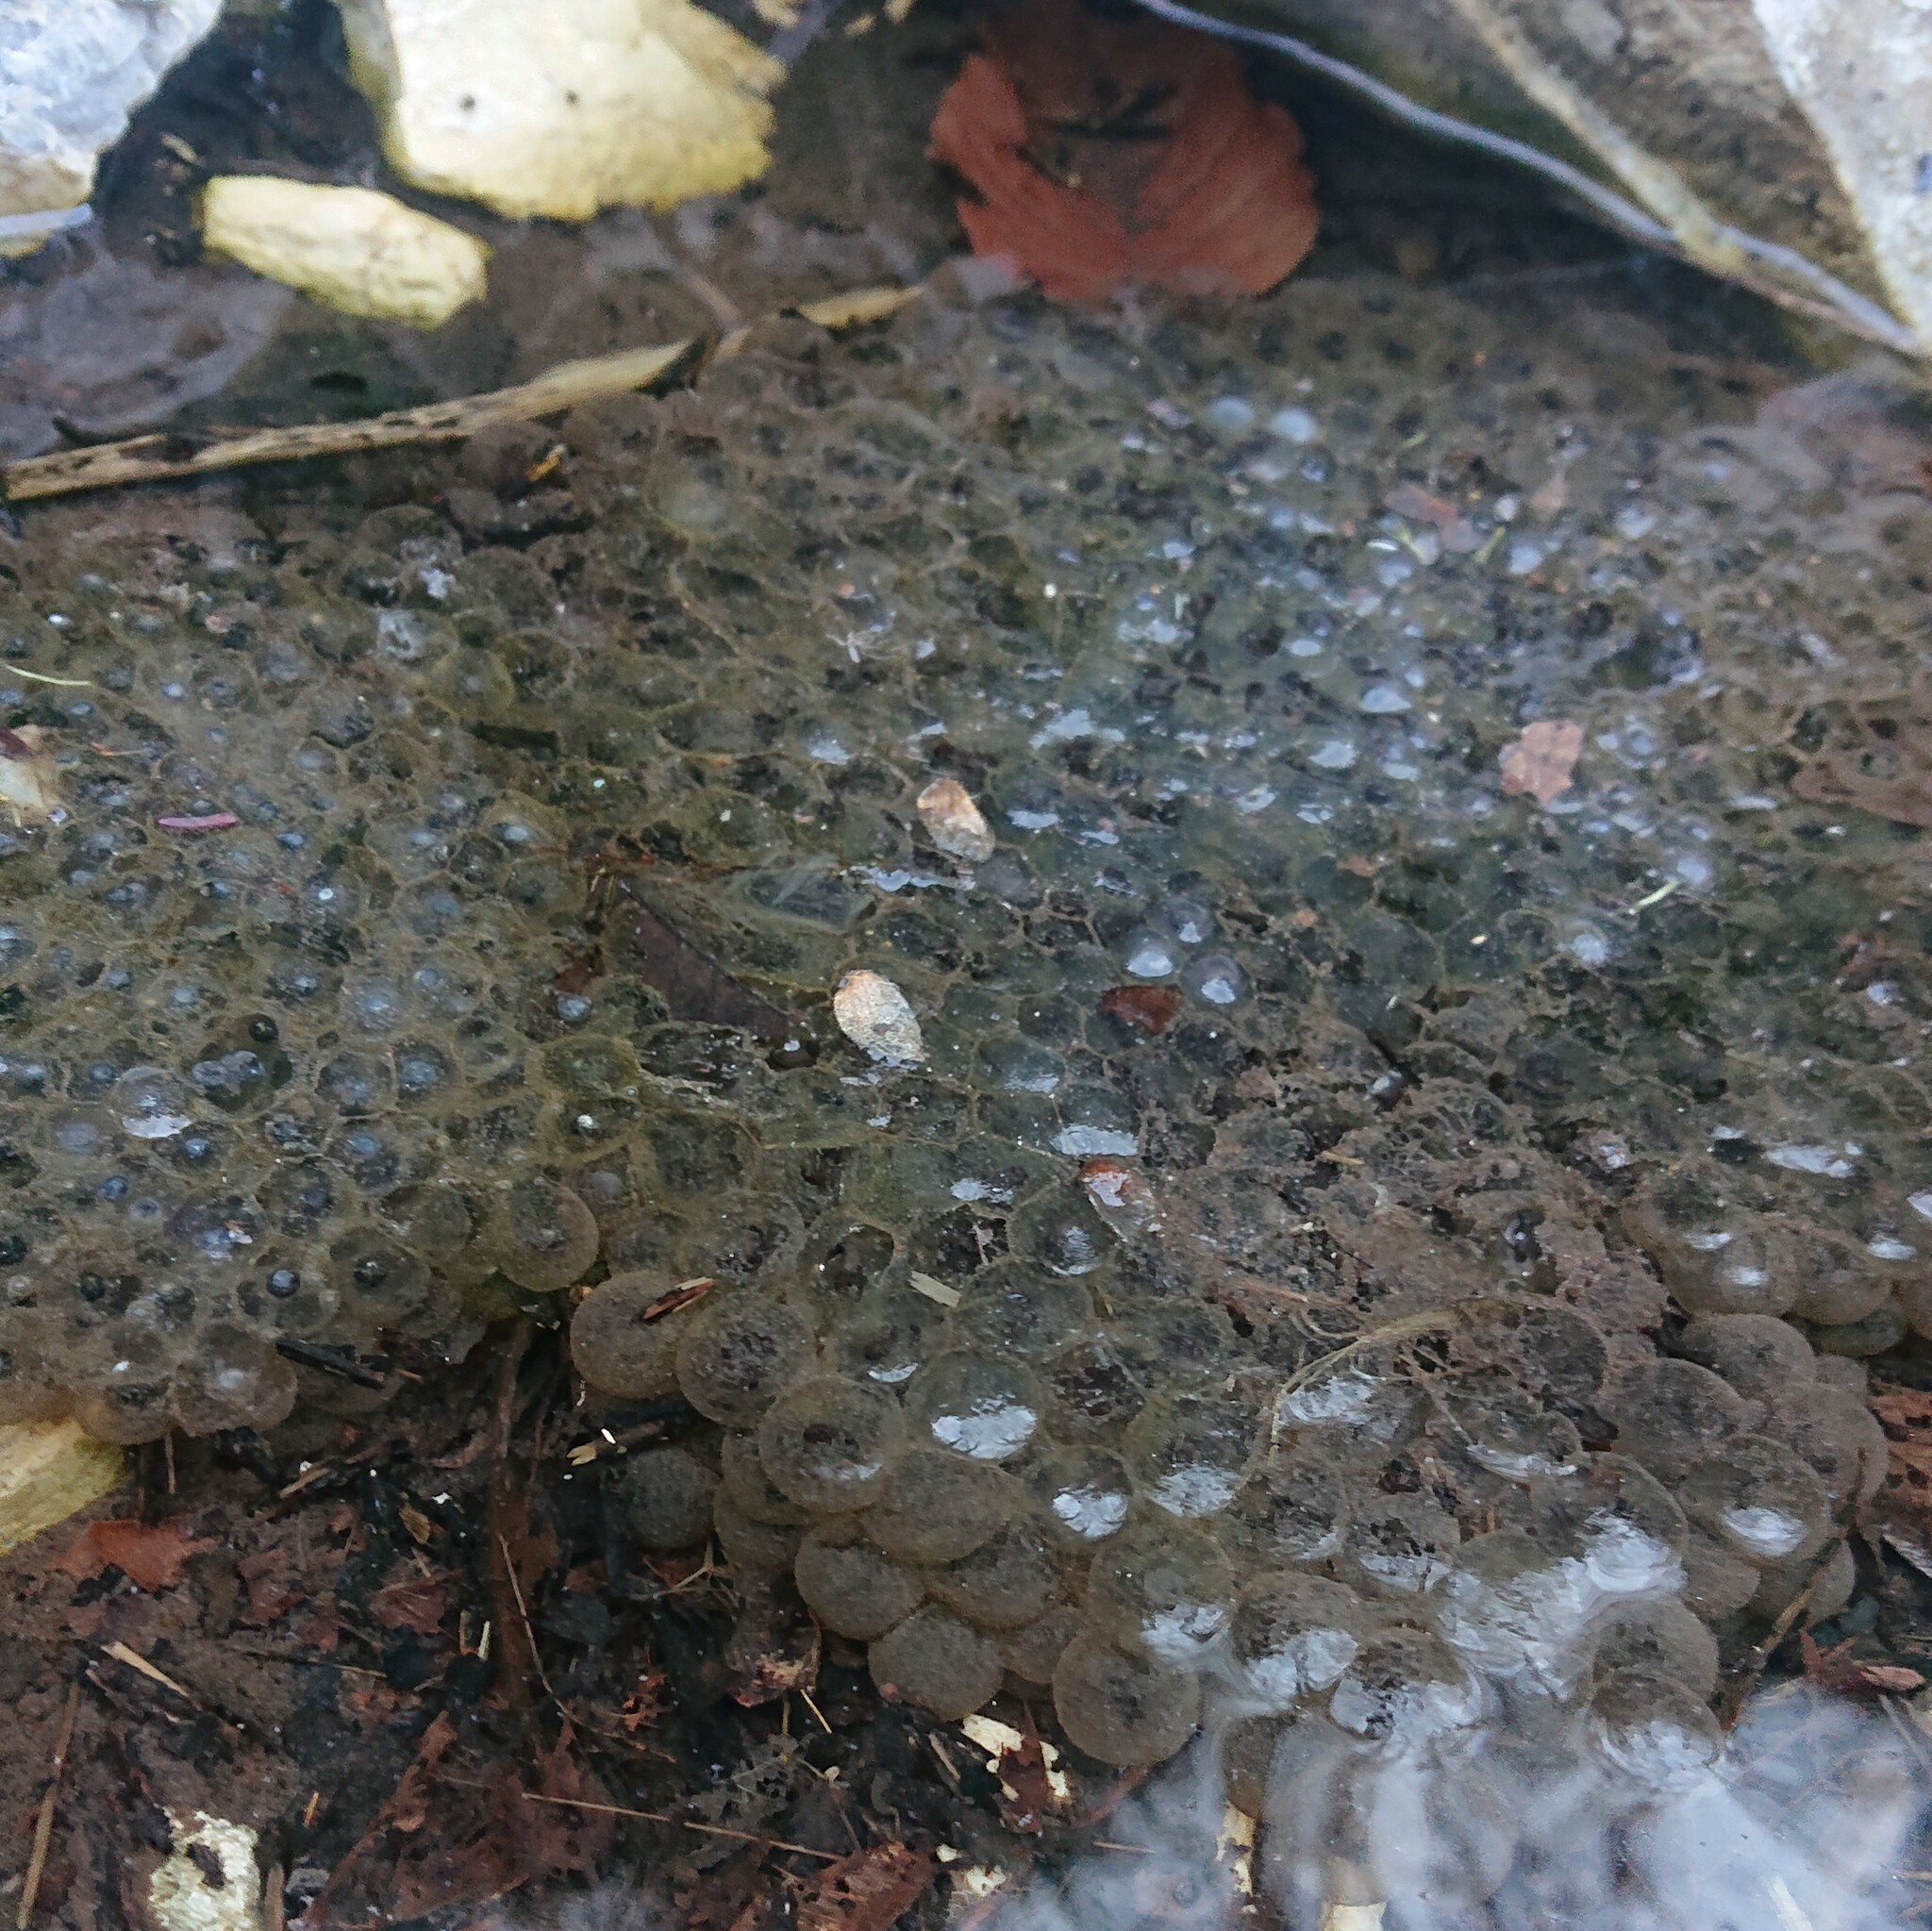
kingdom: Animalia
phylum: Chordata
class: Amphibia
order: Anura
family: Ranidae
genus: Rana
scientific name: Rana temporaria
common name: Common frog
